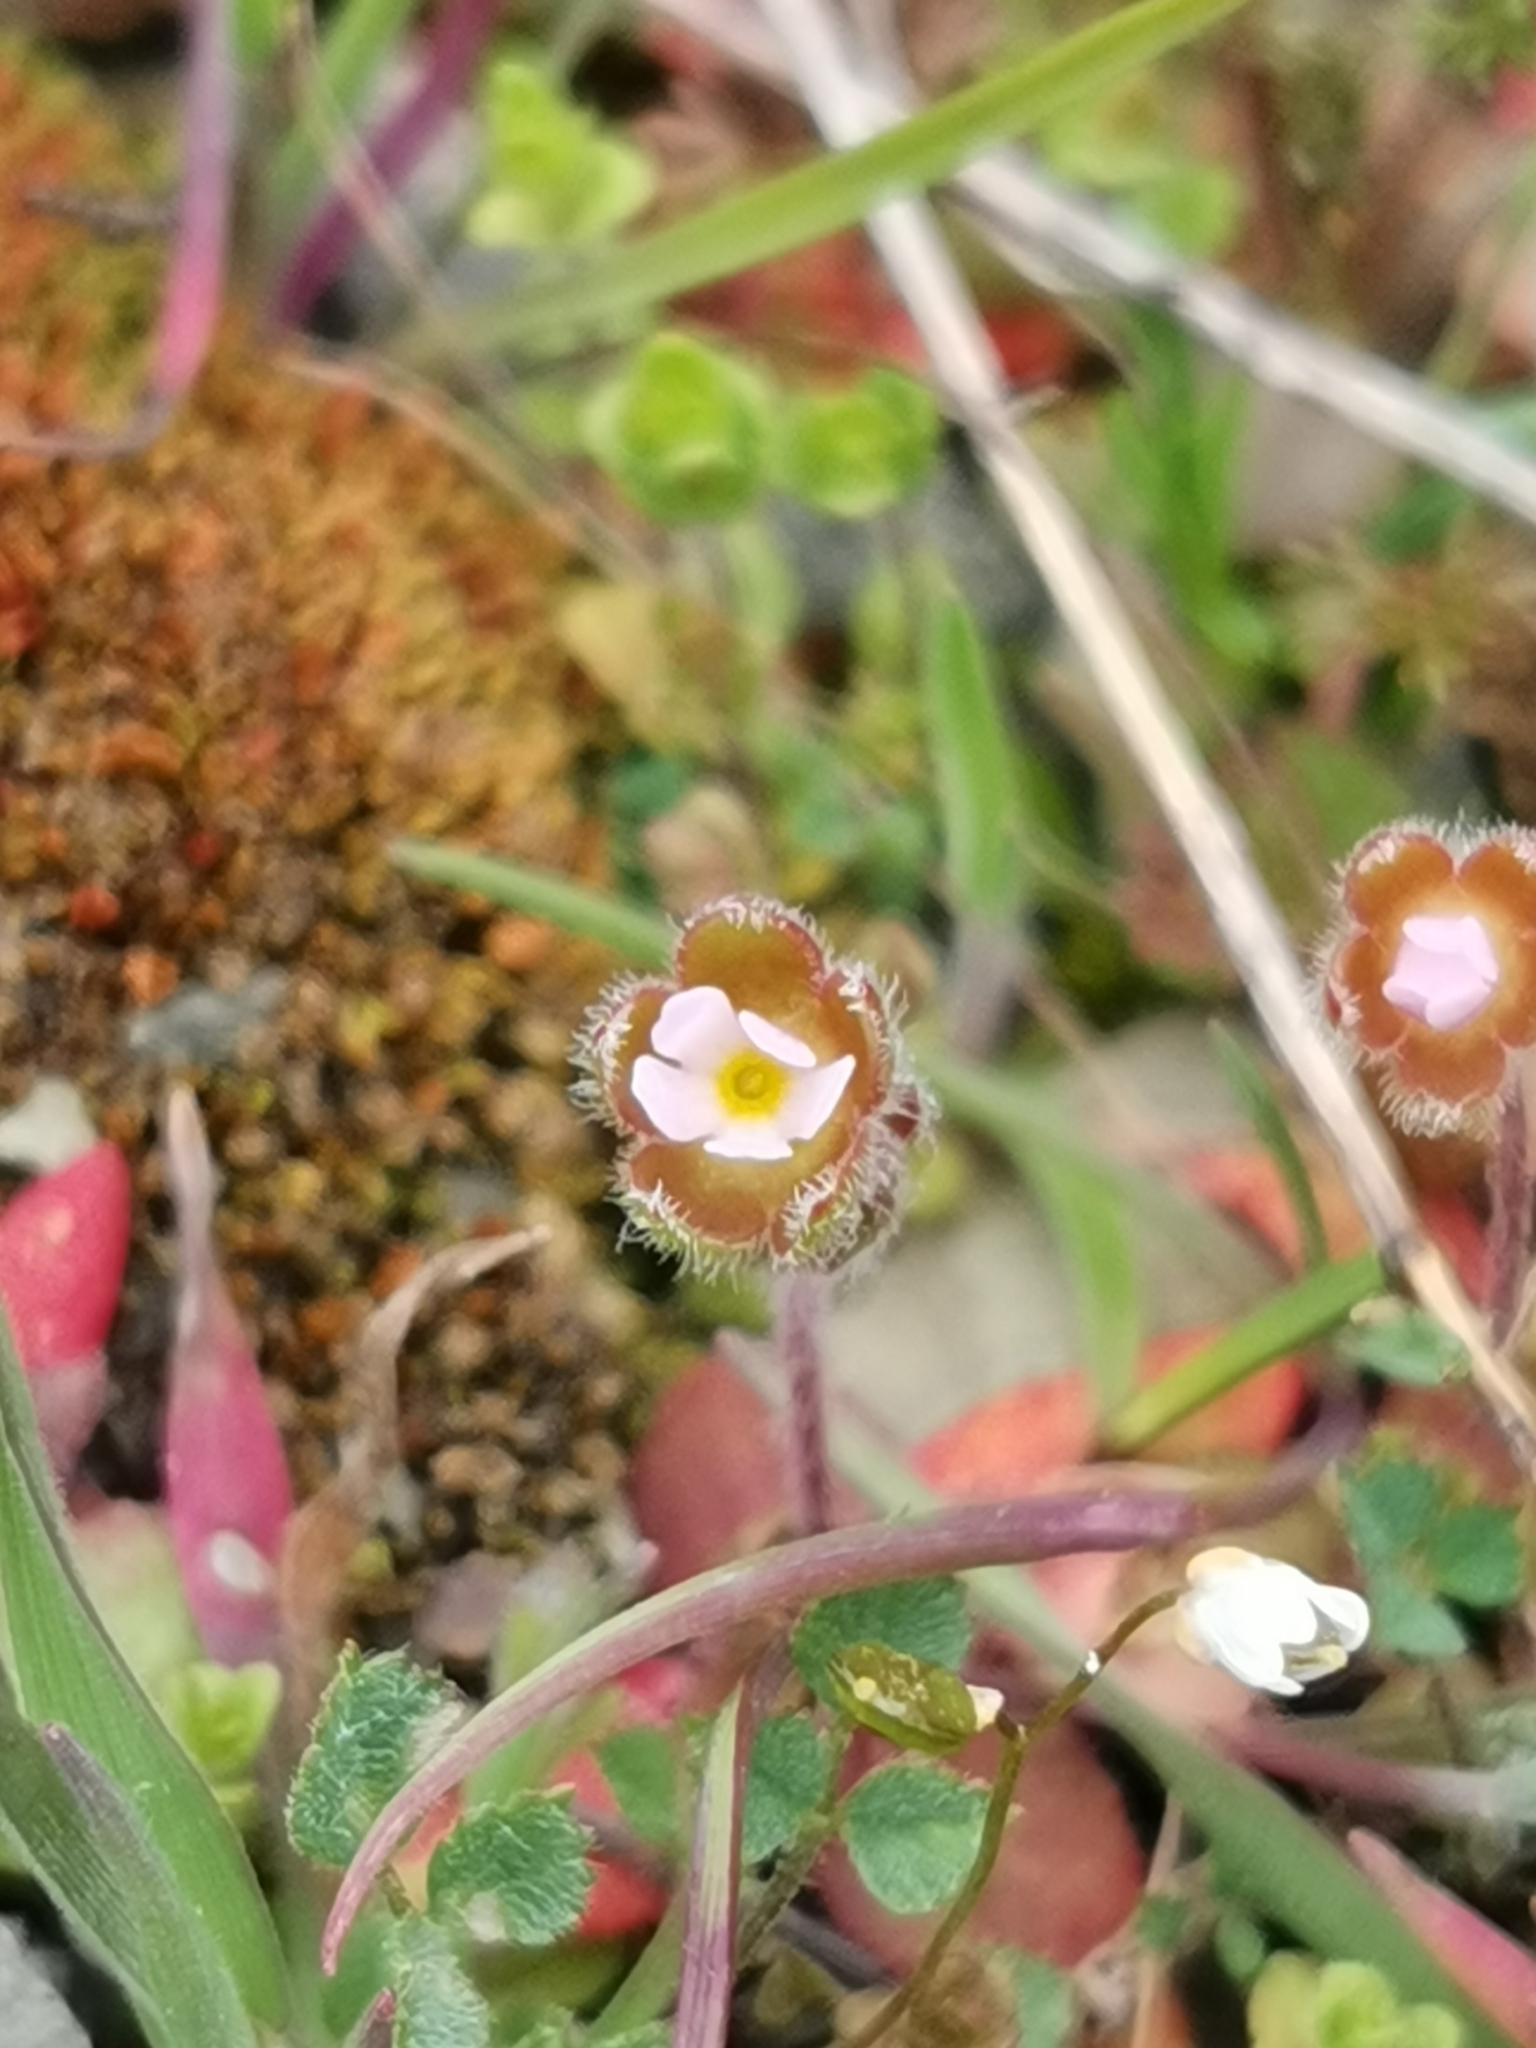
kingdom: Plantae
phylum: Tracheophyta
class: Magnoliopsida
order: Ericales
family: Primulaceae
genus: Androsace
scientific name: Androsace maxima
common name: Annual androsace
